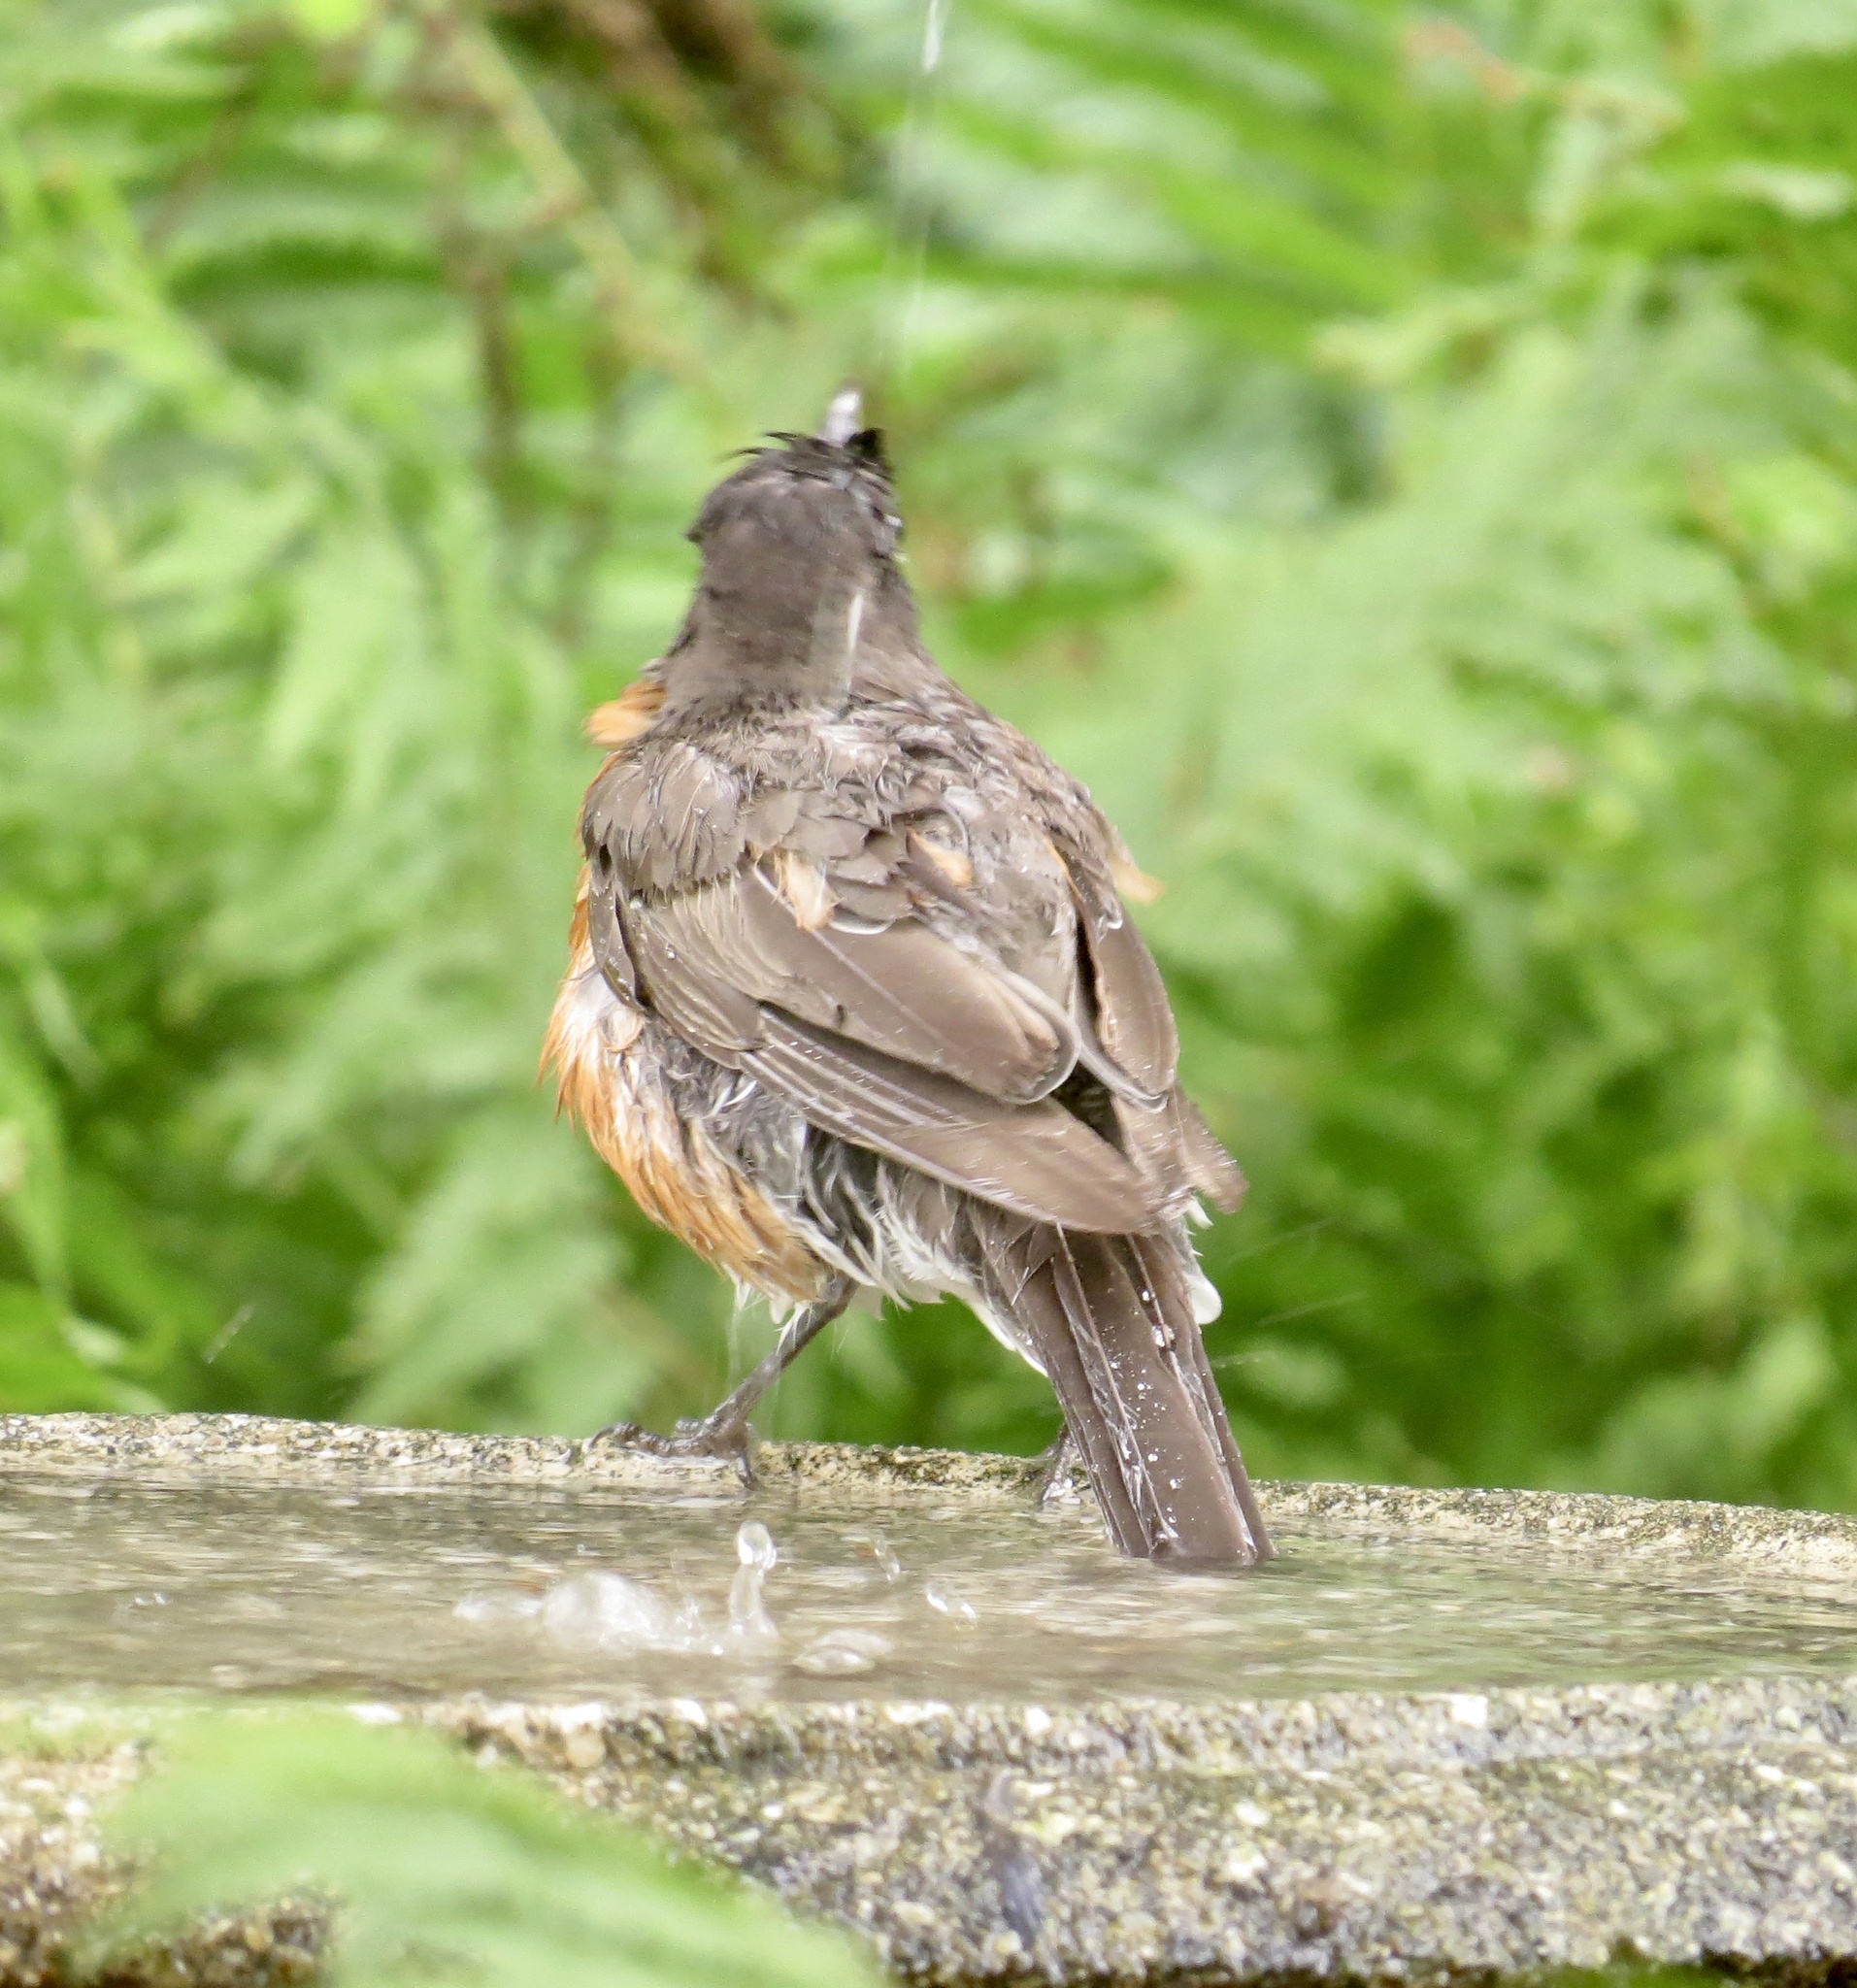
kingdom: Animalia
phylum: Chordata
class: Aves
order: Passeriformes
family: Turdidae
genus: Turdus
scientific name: Turdus migratorius
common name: American robin
